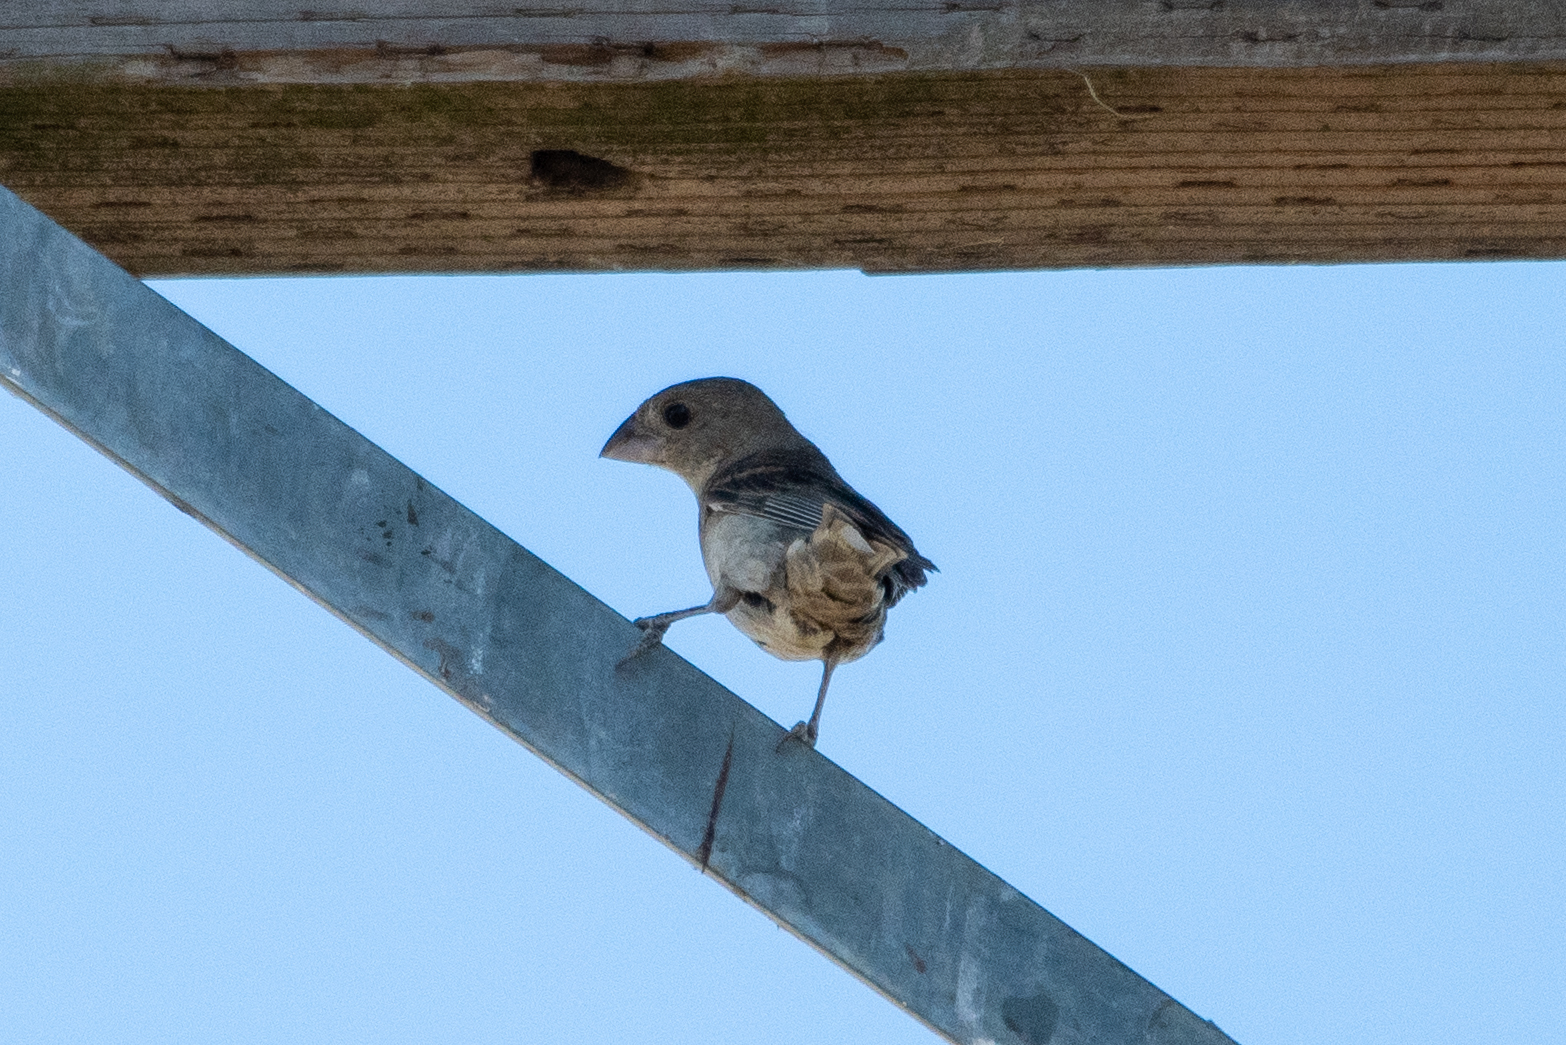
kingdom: Animalia
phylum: Chordata
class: Aves
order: Passeriformes
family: Fringillidae
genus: Haemorhous
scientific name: Haemorhous mexicanus
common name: House finch
